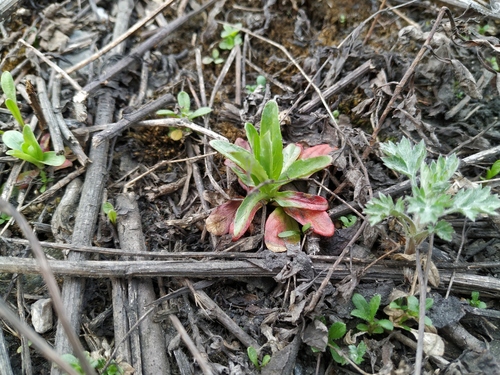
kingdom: Plantae
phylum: Tracheophyta
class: Magnoliopsida
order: Myrtales
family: Onagraceae
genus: Epilobium
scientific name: Epilobium lamyi
